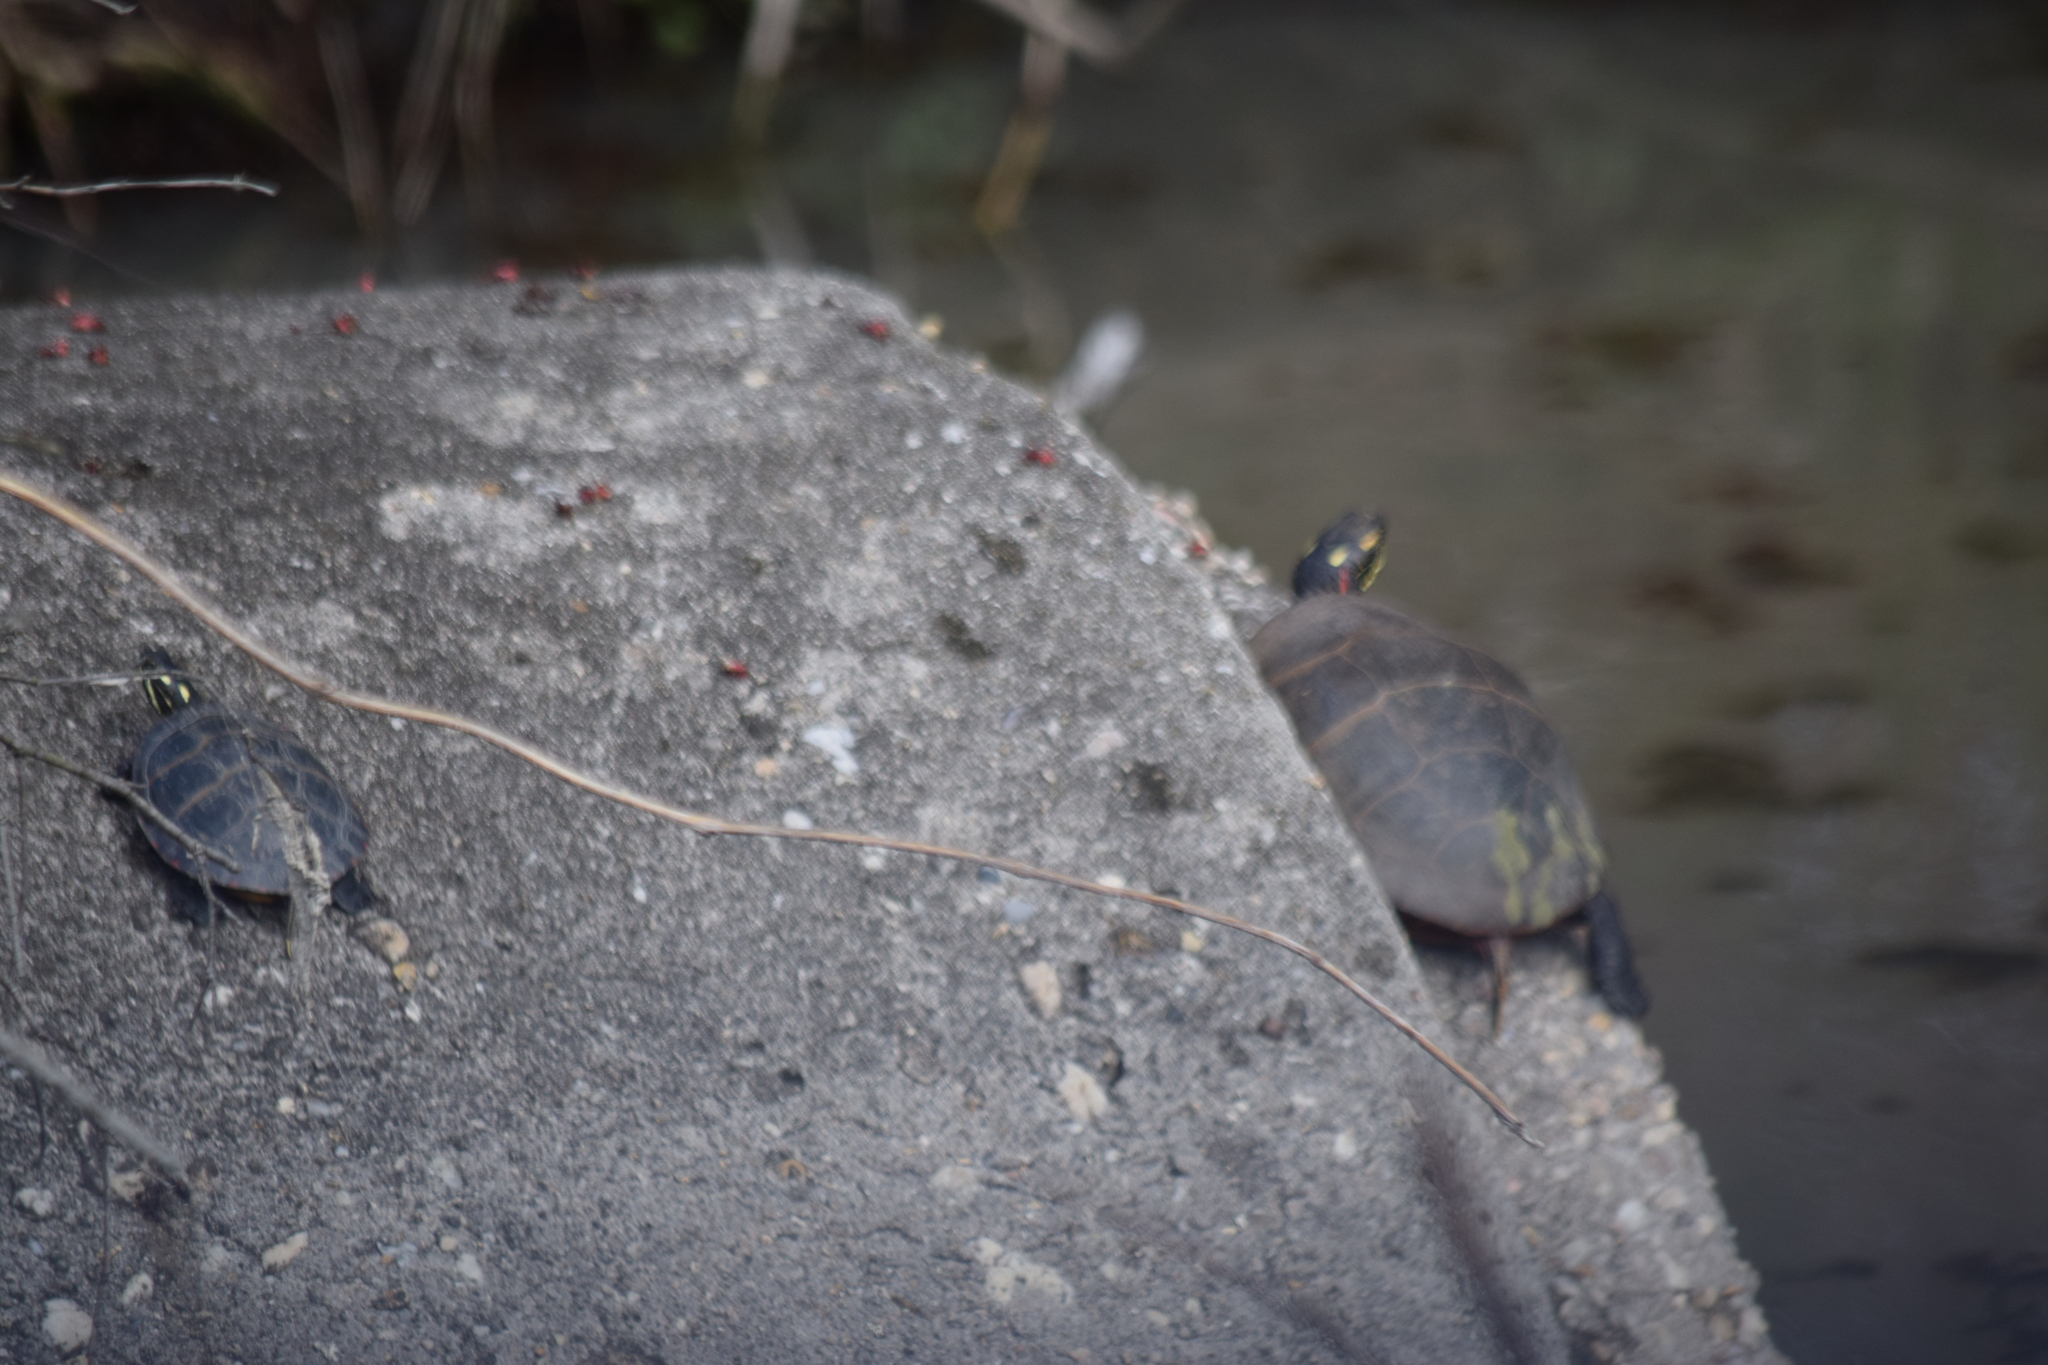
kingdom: Animalia
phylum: Chordata
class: Testudines
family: Emydidae
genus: Chrysemys
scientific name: Chrysemys picta
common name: Painted turtle
